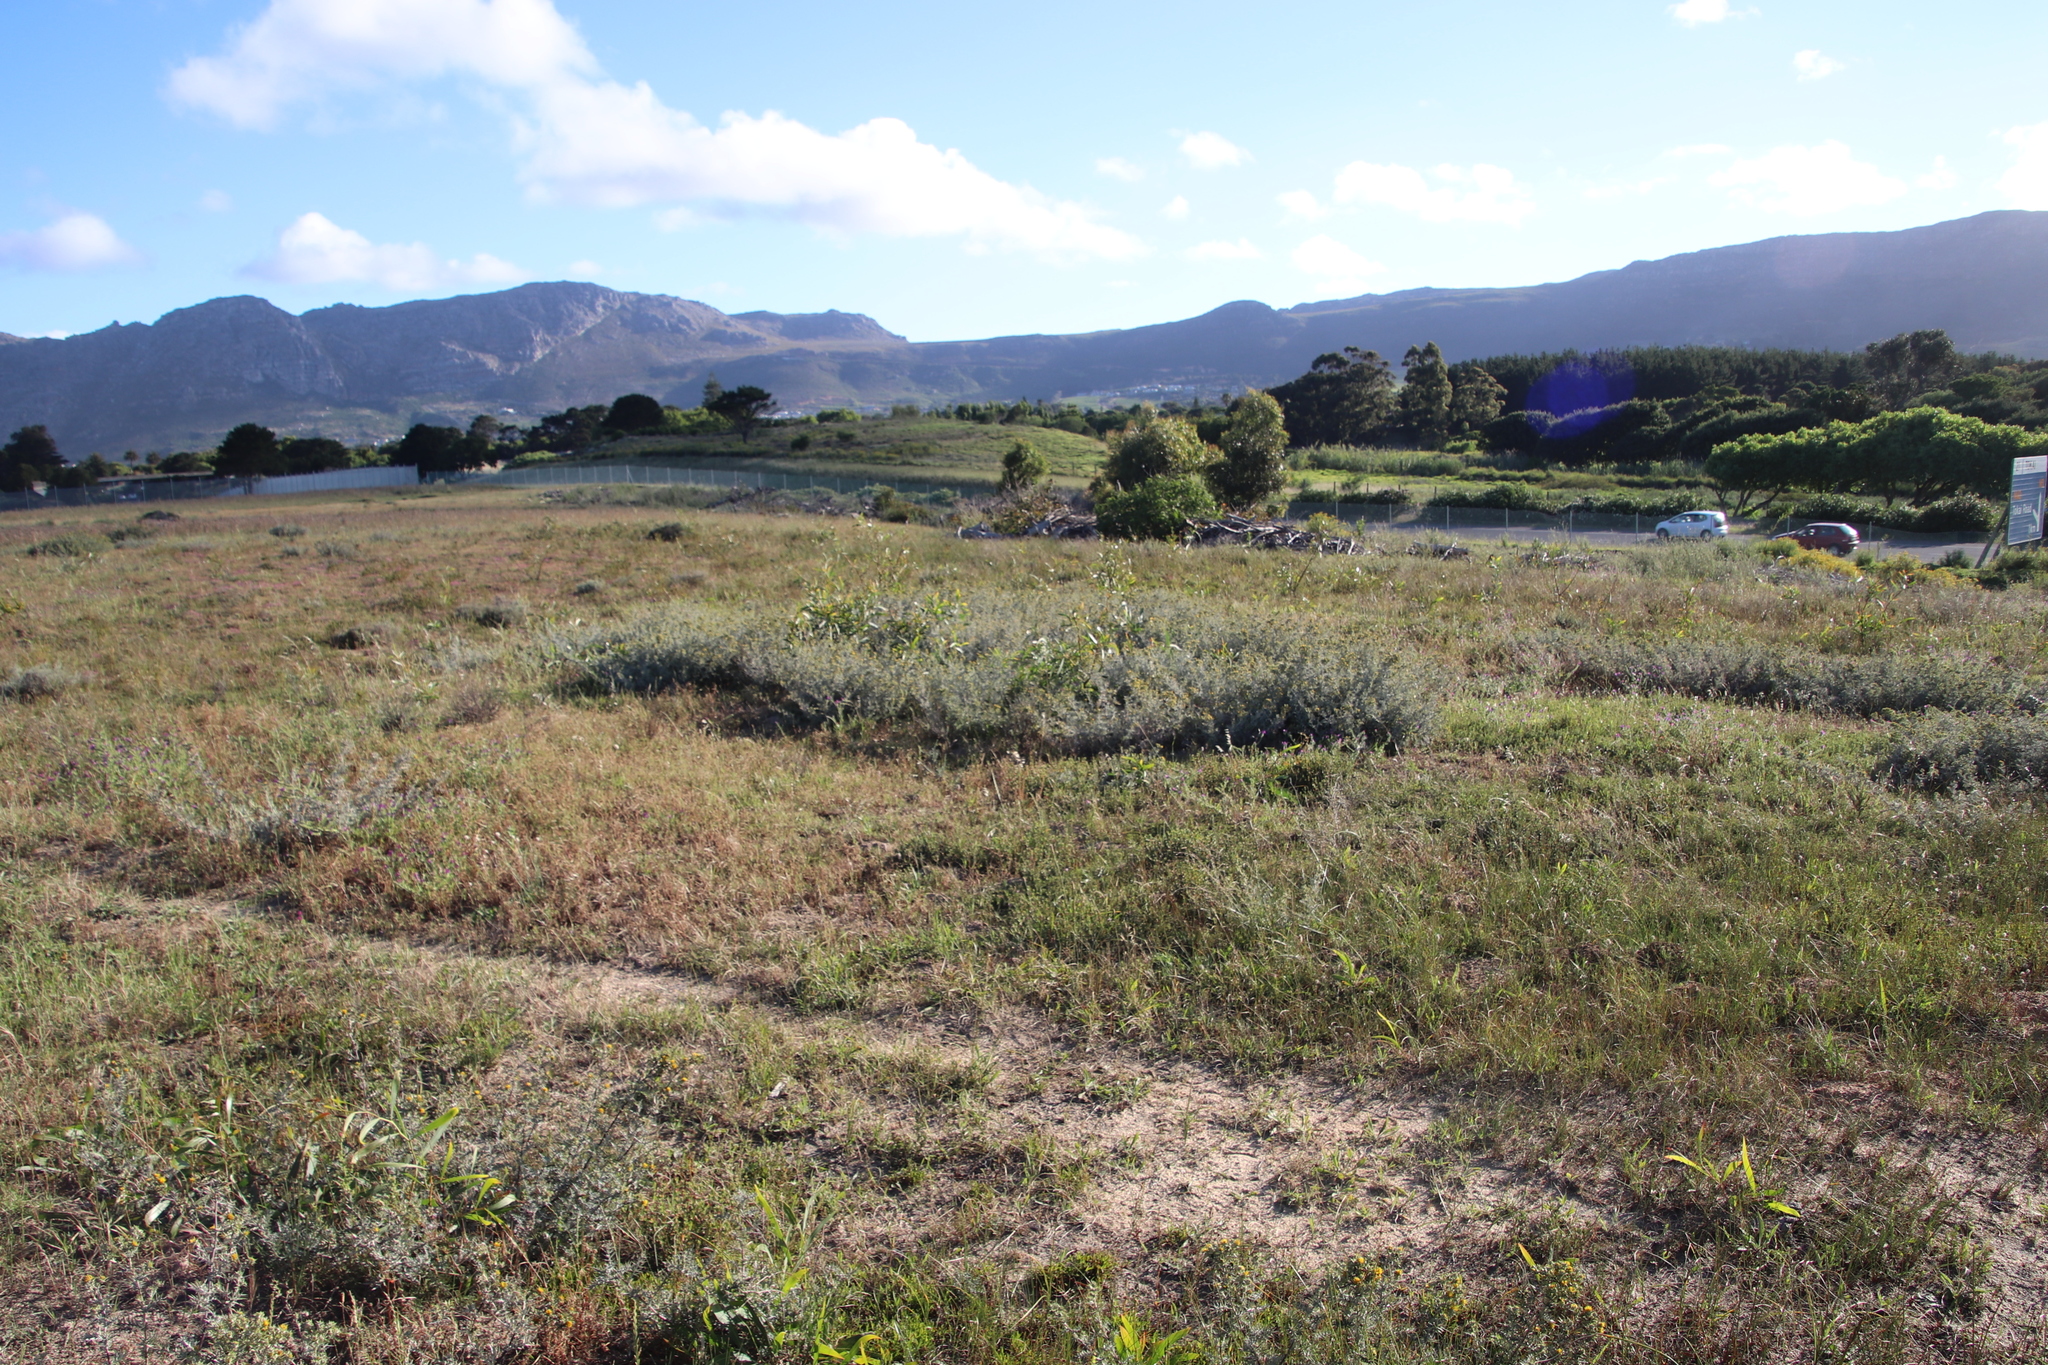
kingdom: Plantae
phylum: Tracheophyta
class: Magnoliopsida
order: Asterales
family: Asteraceae
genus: Berkheya
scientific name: Berkheya rigida
